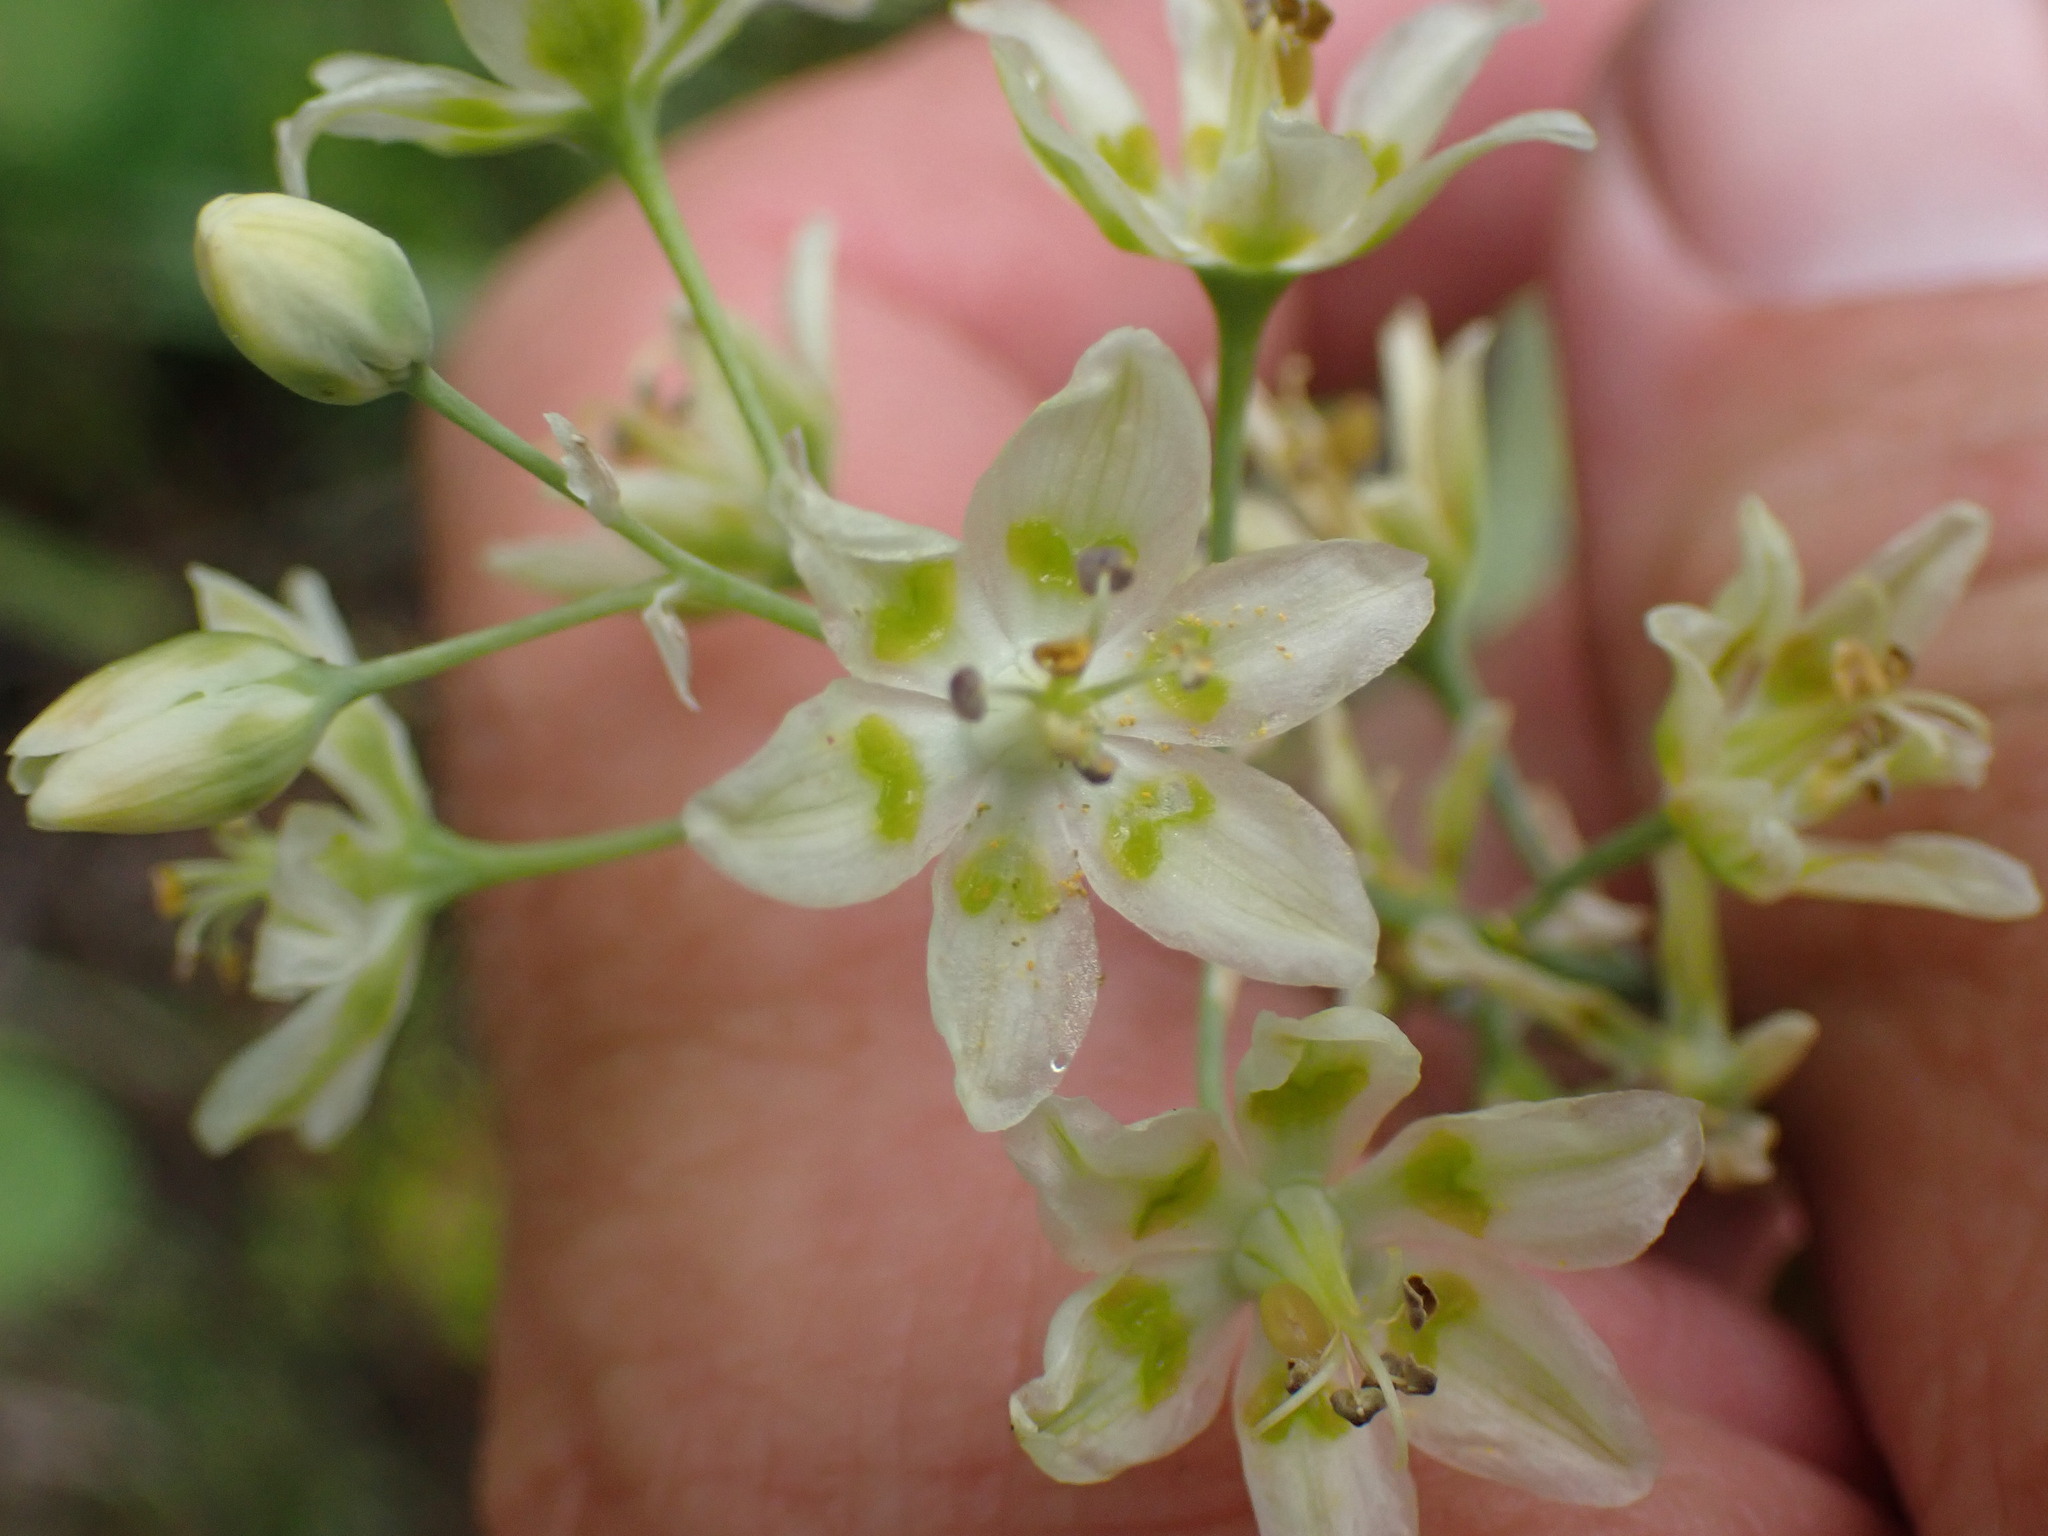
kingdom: Plantae
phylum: Tracheophyta
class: Liliopsida
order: Liliales
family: Melanthiaceae
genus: Anticlea
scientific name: Anticlea elegans
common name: Mountain death camas
